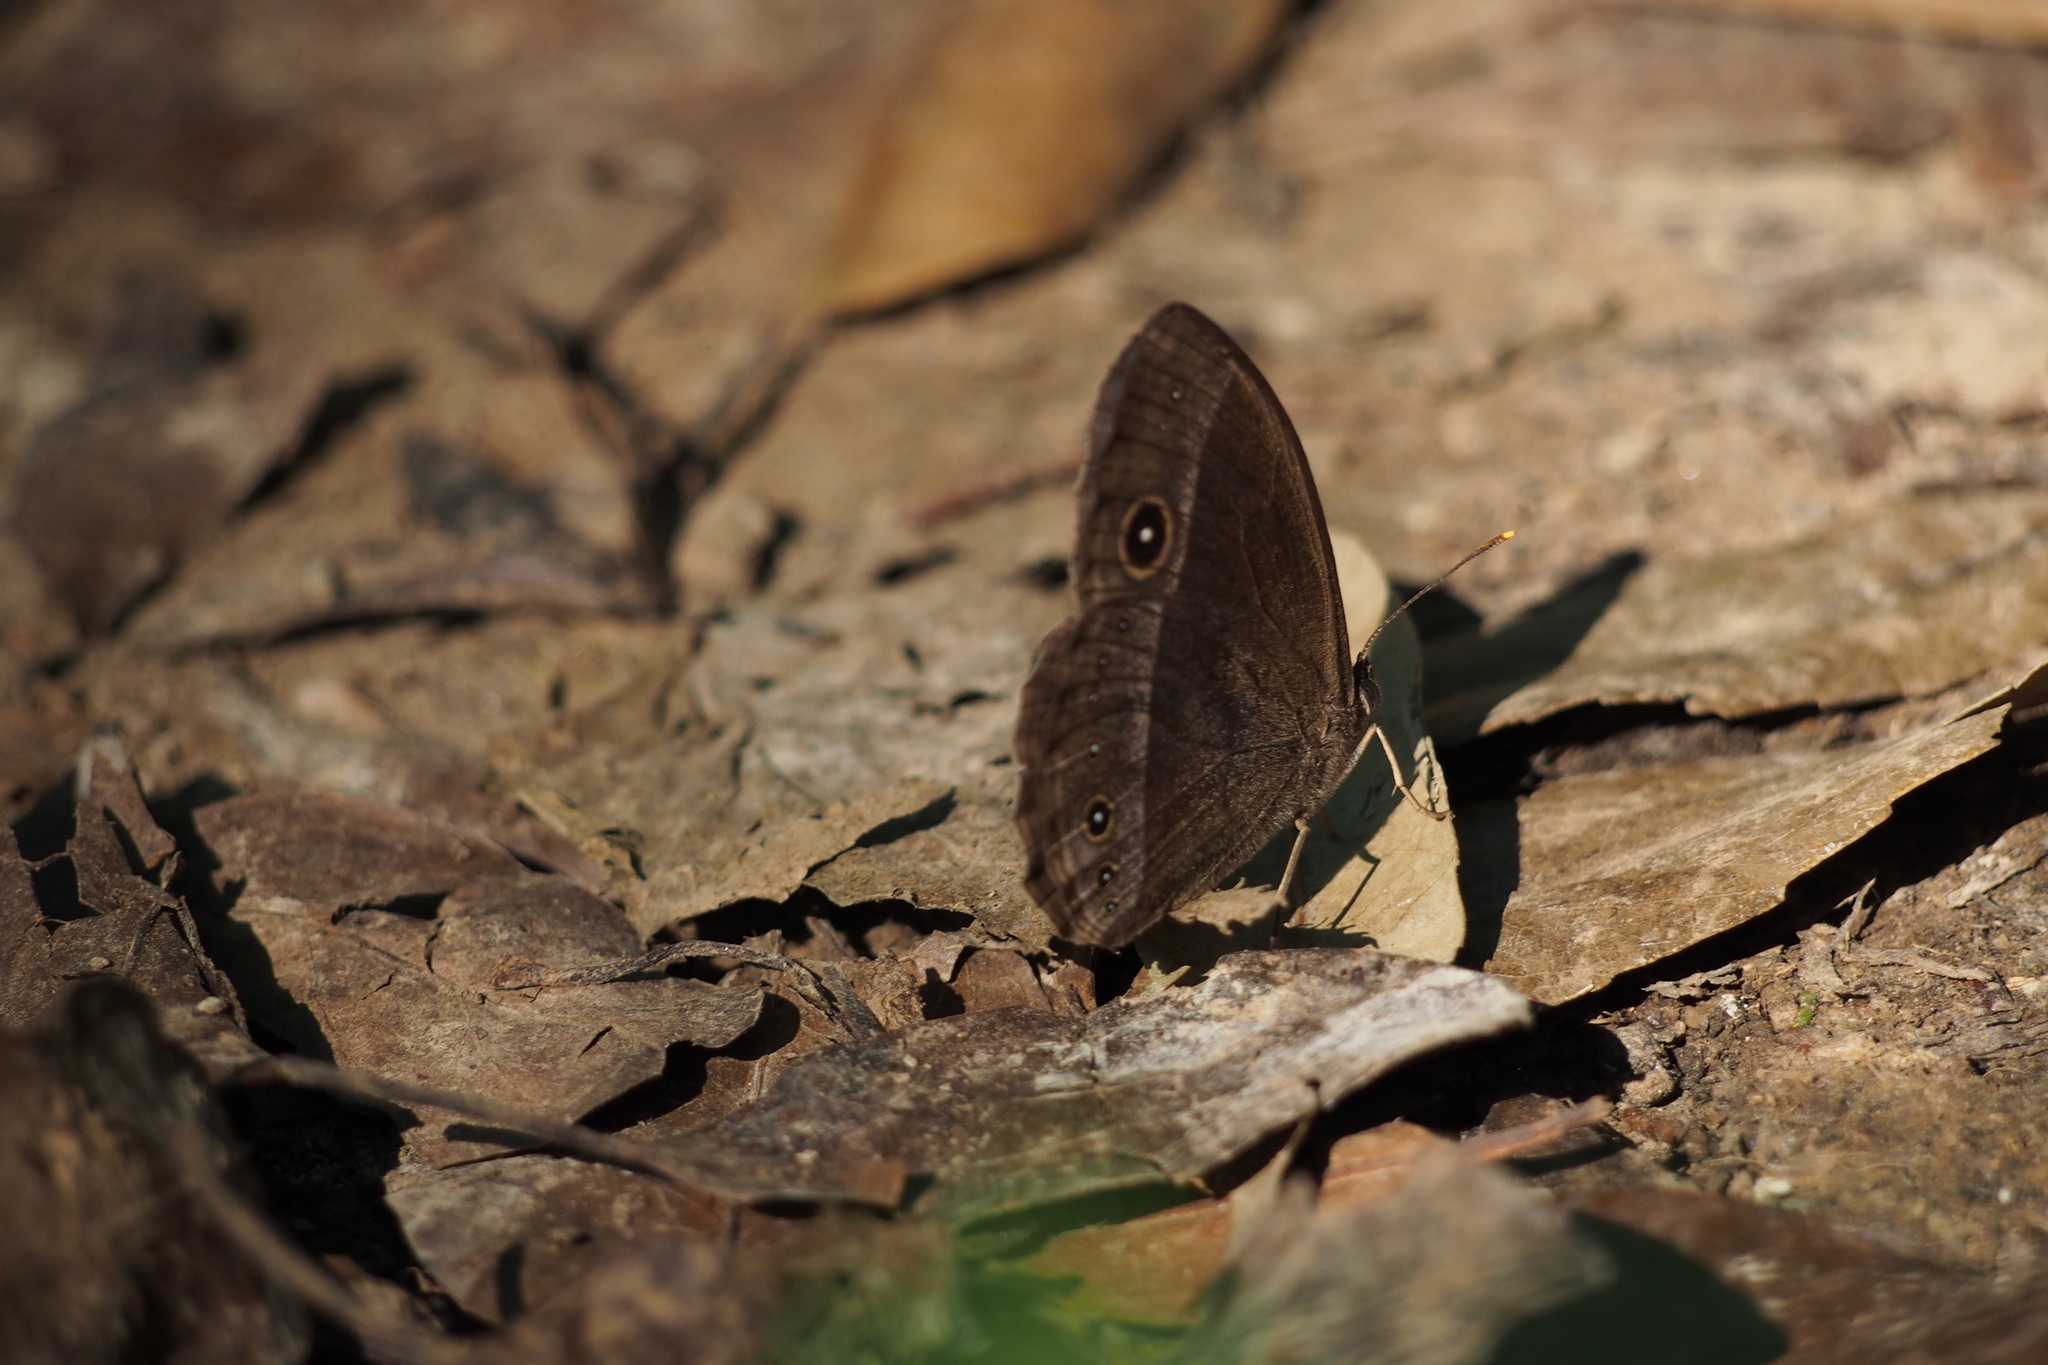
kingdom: Animalia
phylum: Arthropoda
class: Insecta
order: Lepidoptera
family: Nymphalidae
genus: Mycalesis
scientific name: Mycalesis francisca
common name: Lilacine bushbrown
